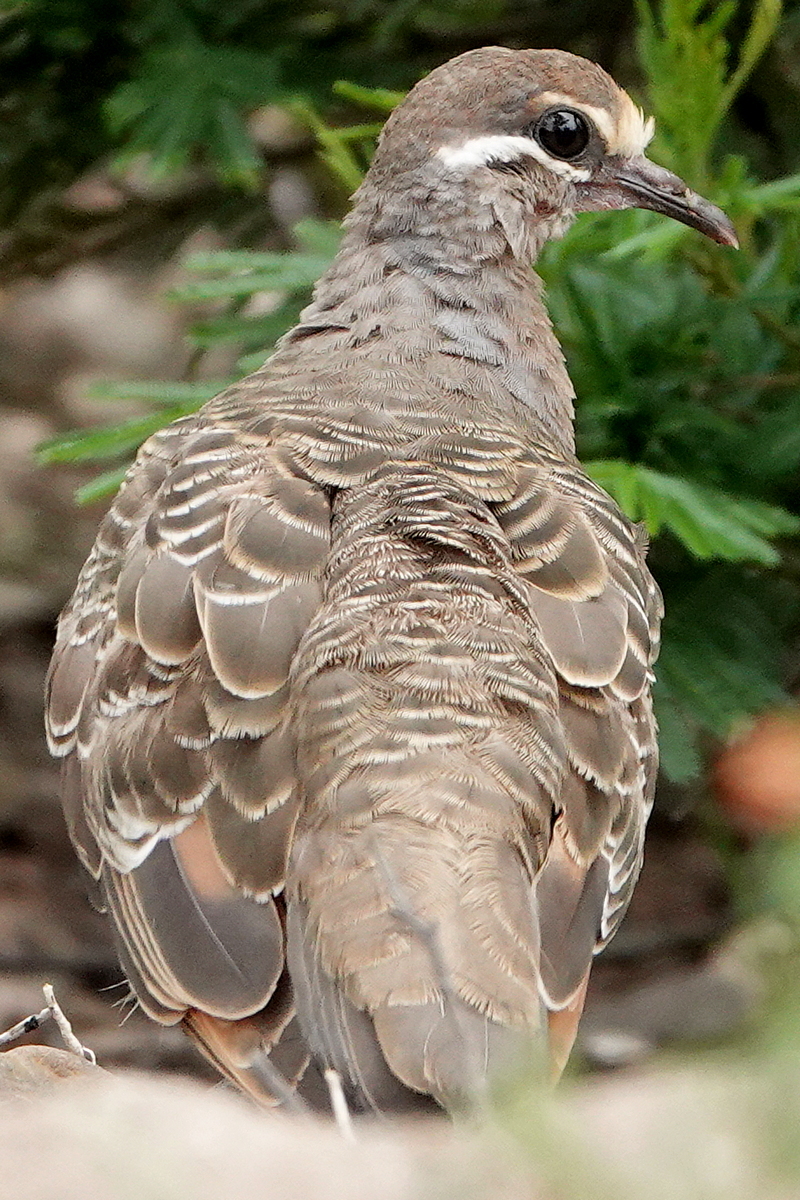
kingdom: Animalia
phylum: Chordata
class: Aves
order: Columbiformes
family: Columbidae
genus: Phaps
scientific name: Phaps chalcoptera
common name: Common bronzewing
